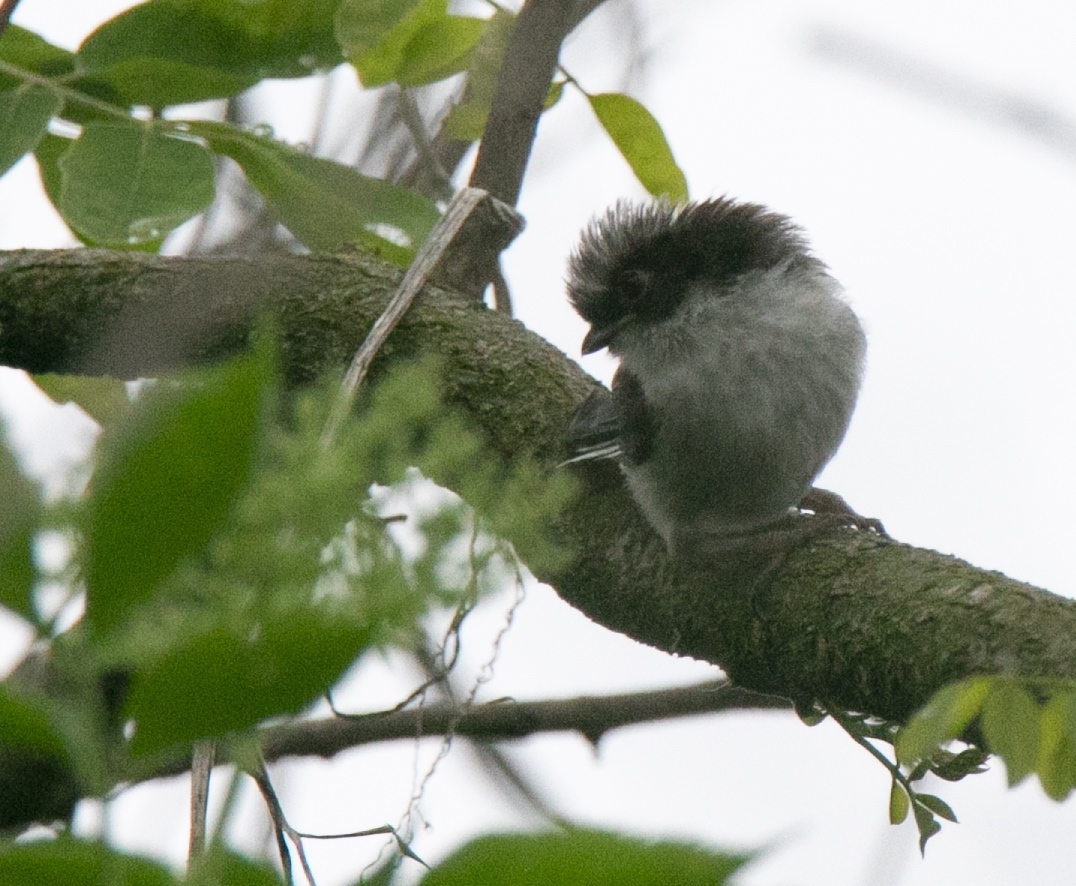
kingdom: Animalia
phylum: Chordata
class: Aves
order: Passeriformes
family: Aegithalidae
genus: Aegithalos
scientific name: Aegithalos caudatus
